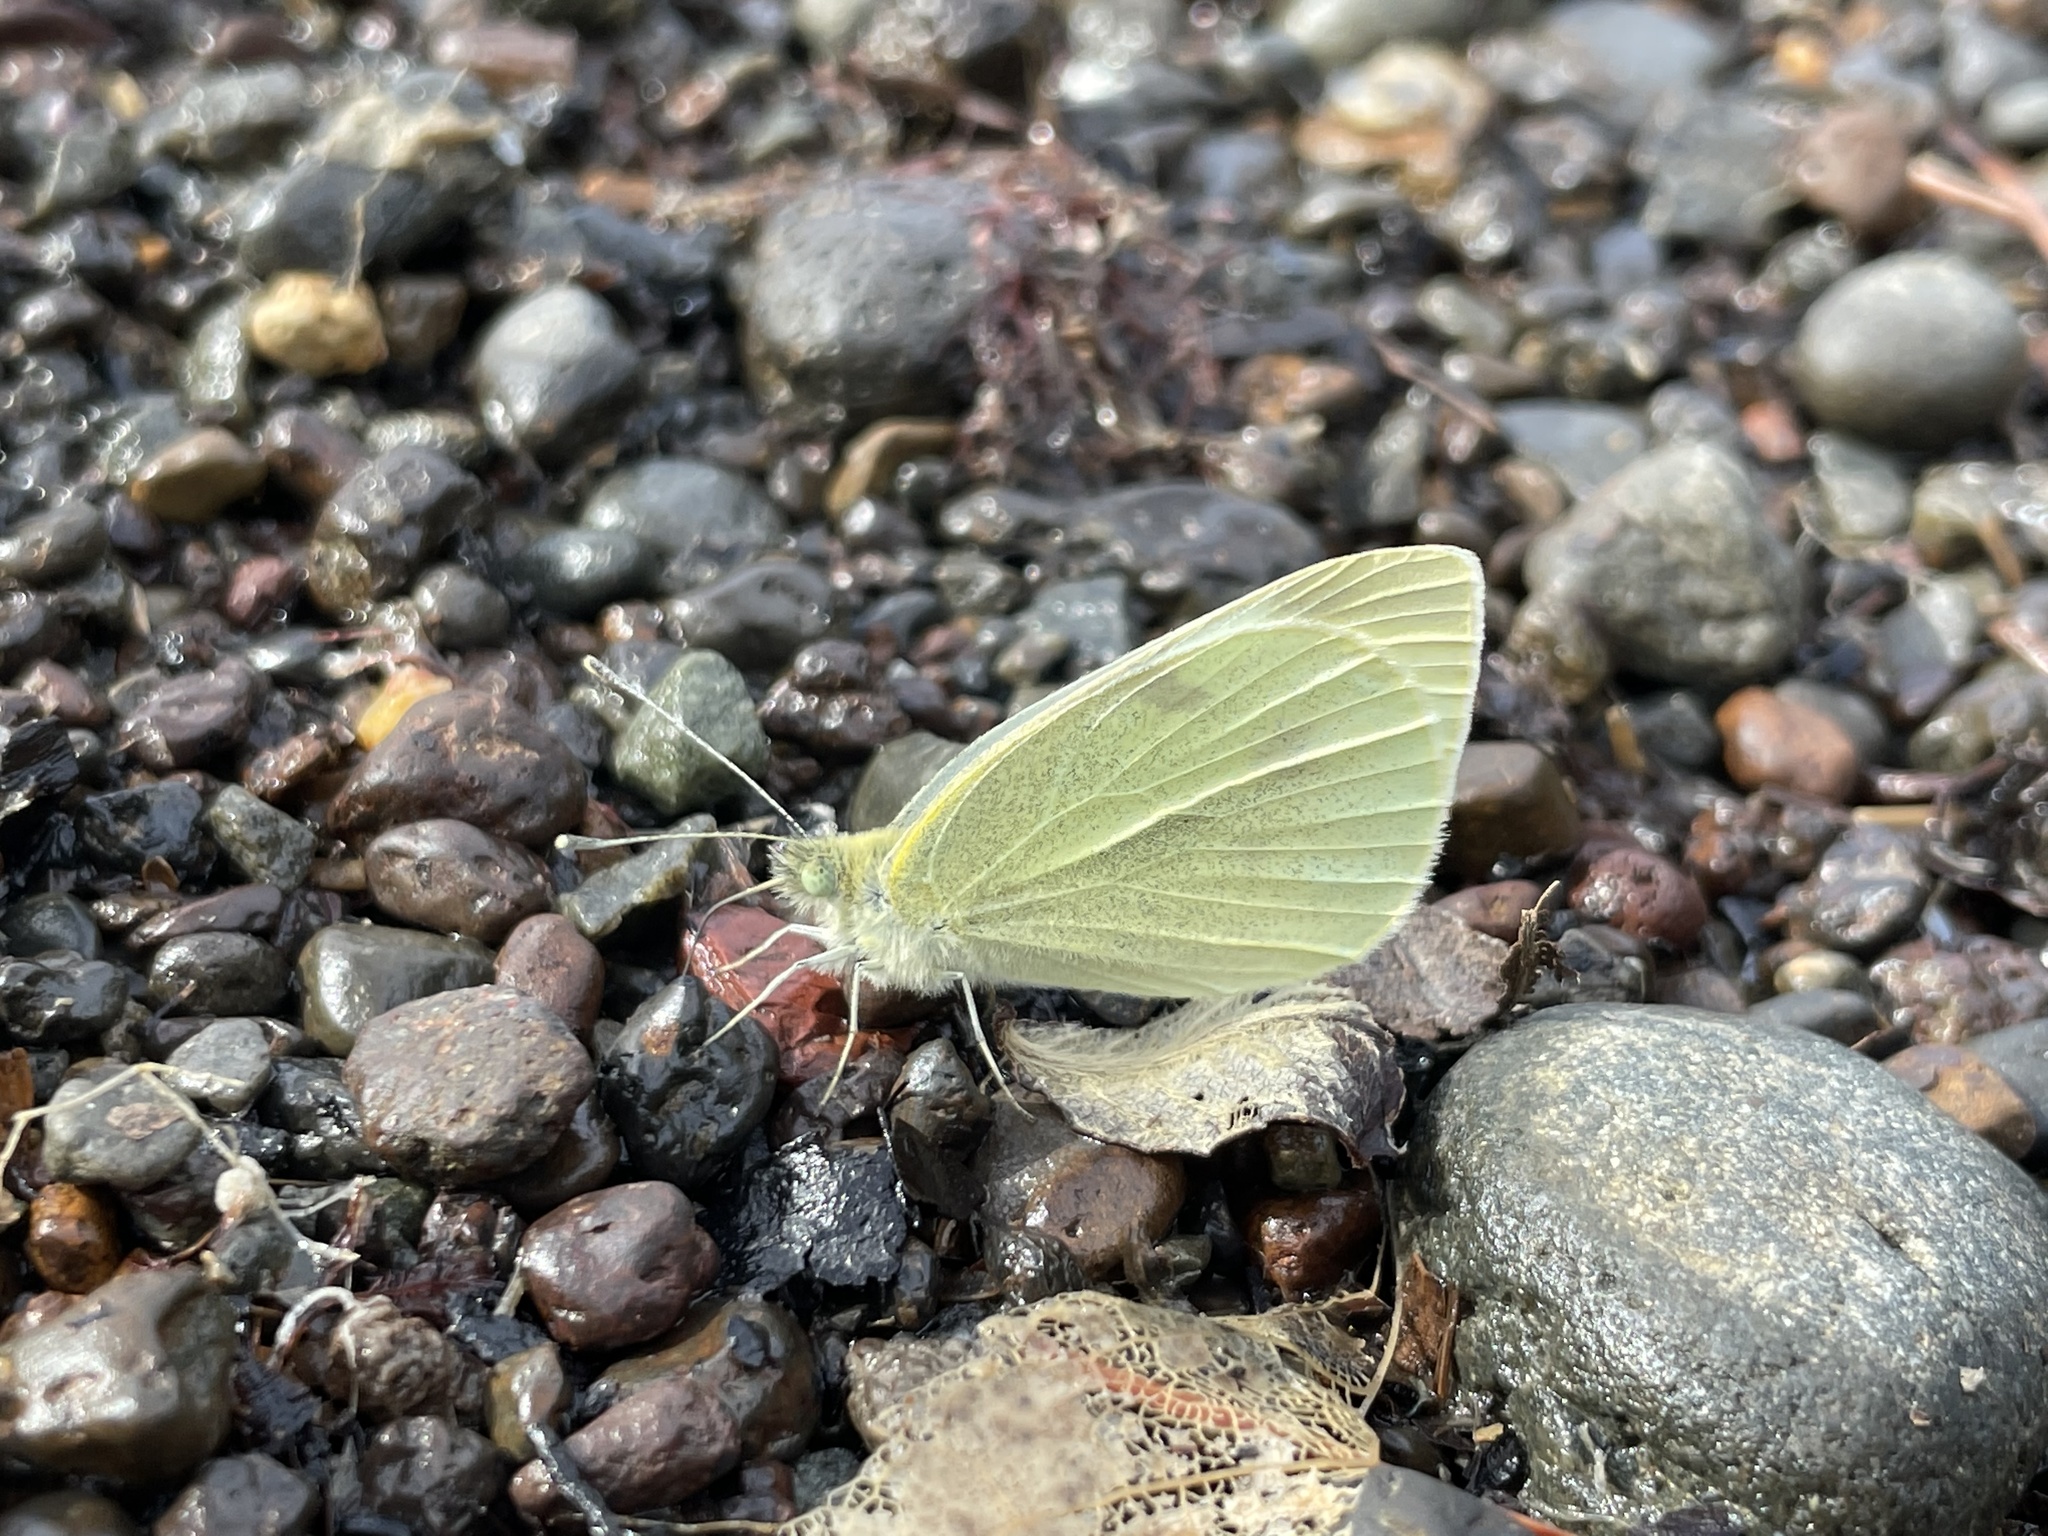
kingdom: Animalia
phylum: Arthropoda
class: Insecta
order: Lepidoptera
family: Pieridae
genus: Pieris
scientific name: Pieris rapae
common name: Small white
